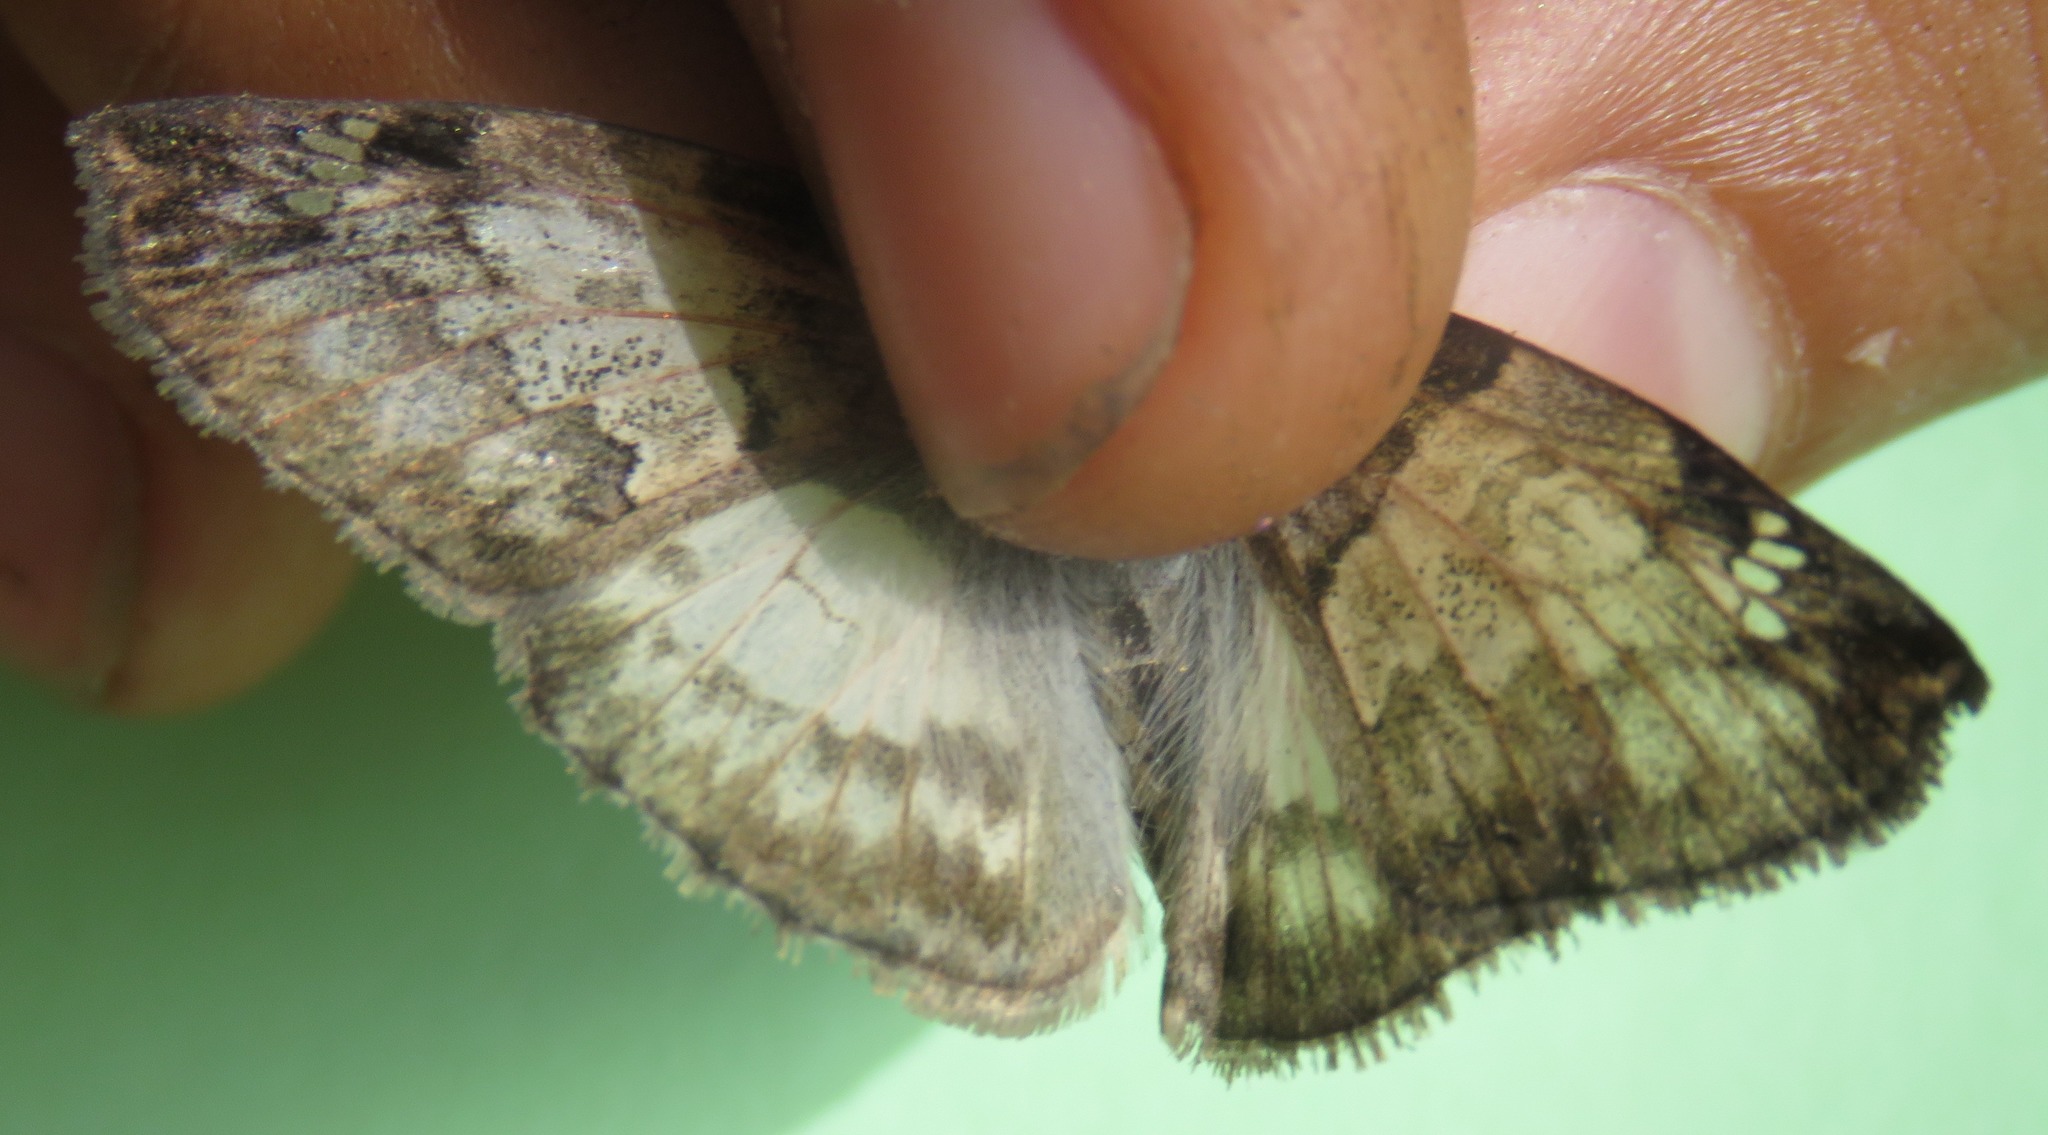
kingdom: Animalia
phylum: Arthropoda
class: Insecta
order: Lepidoptera
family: Hesperiidae
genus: Mylon
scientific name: Mylon lassia
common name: Bold mylon
